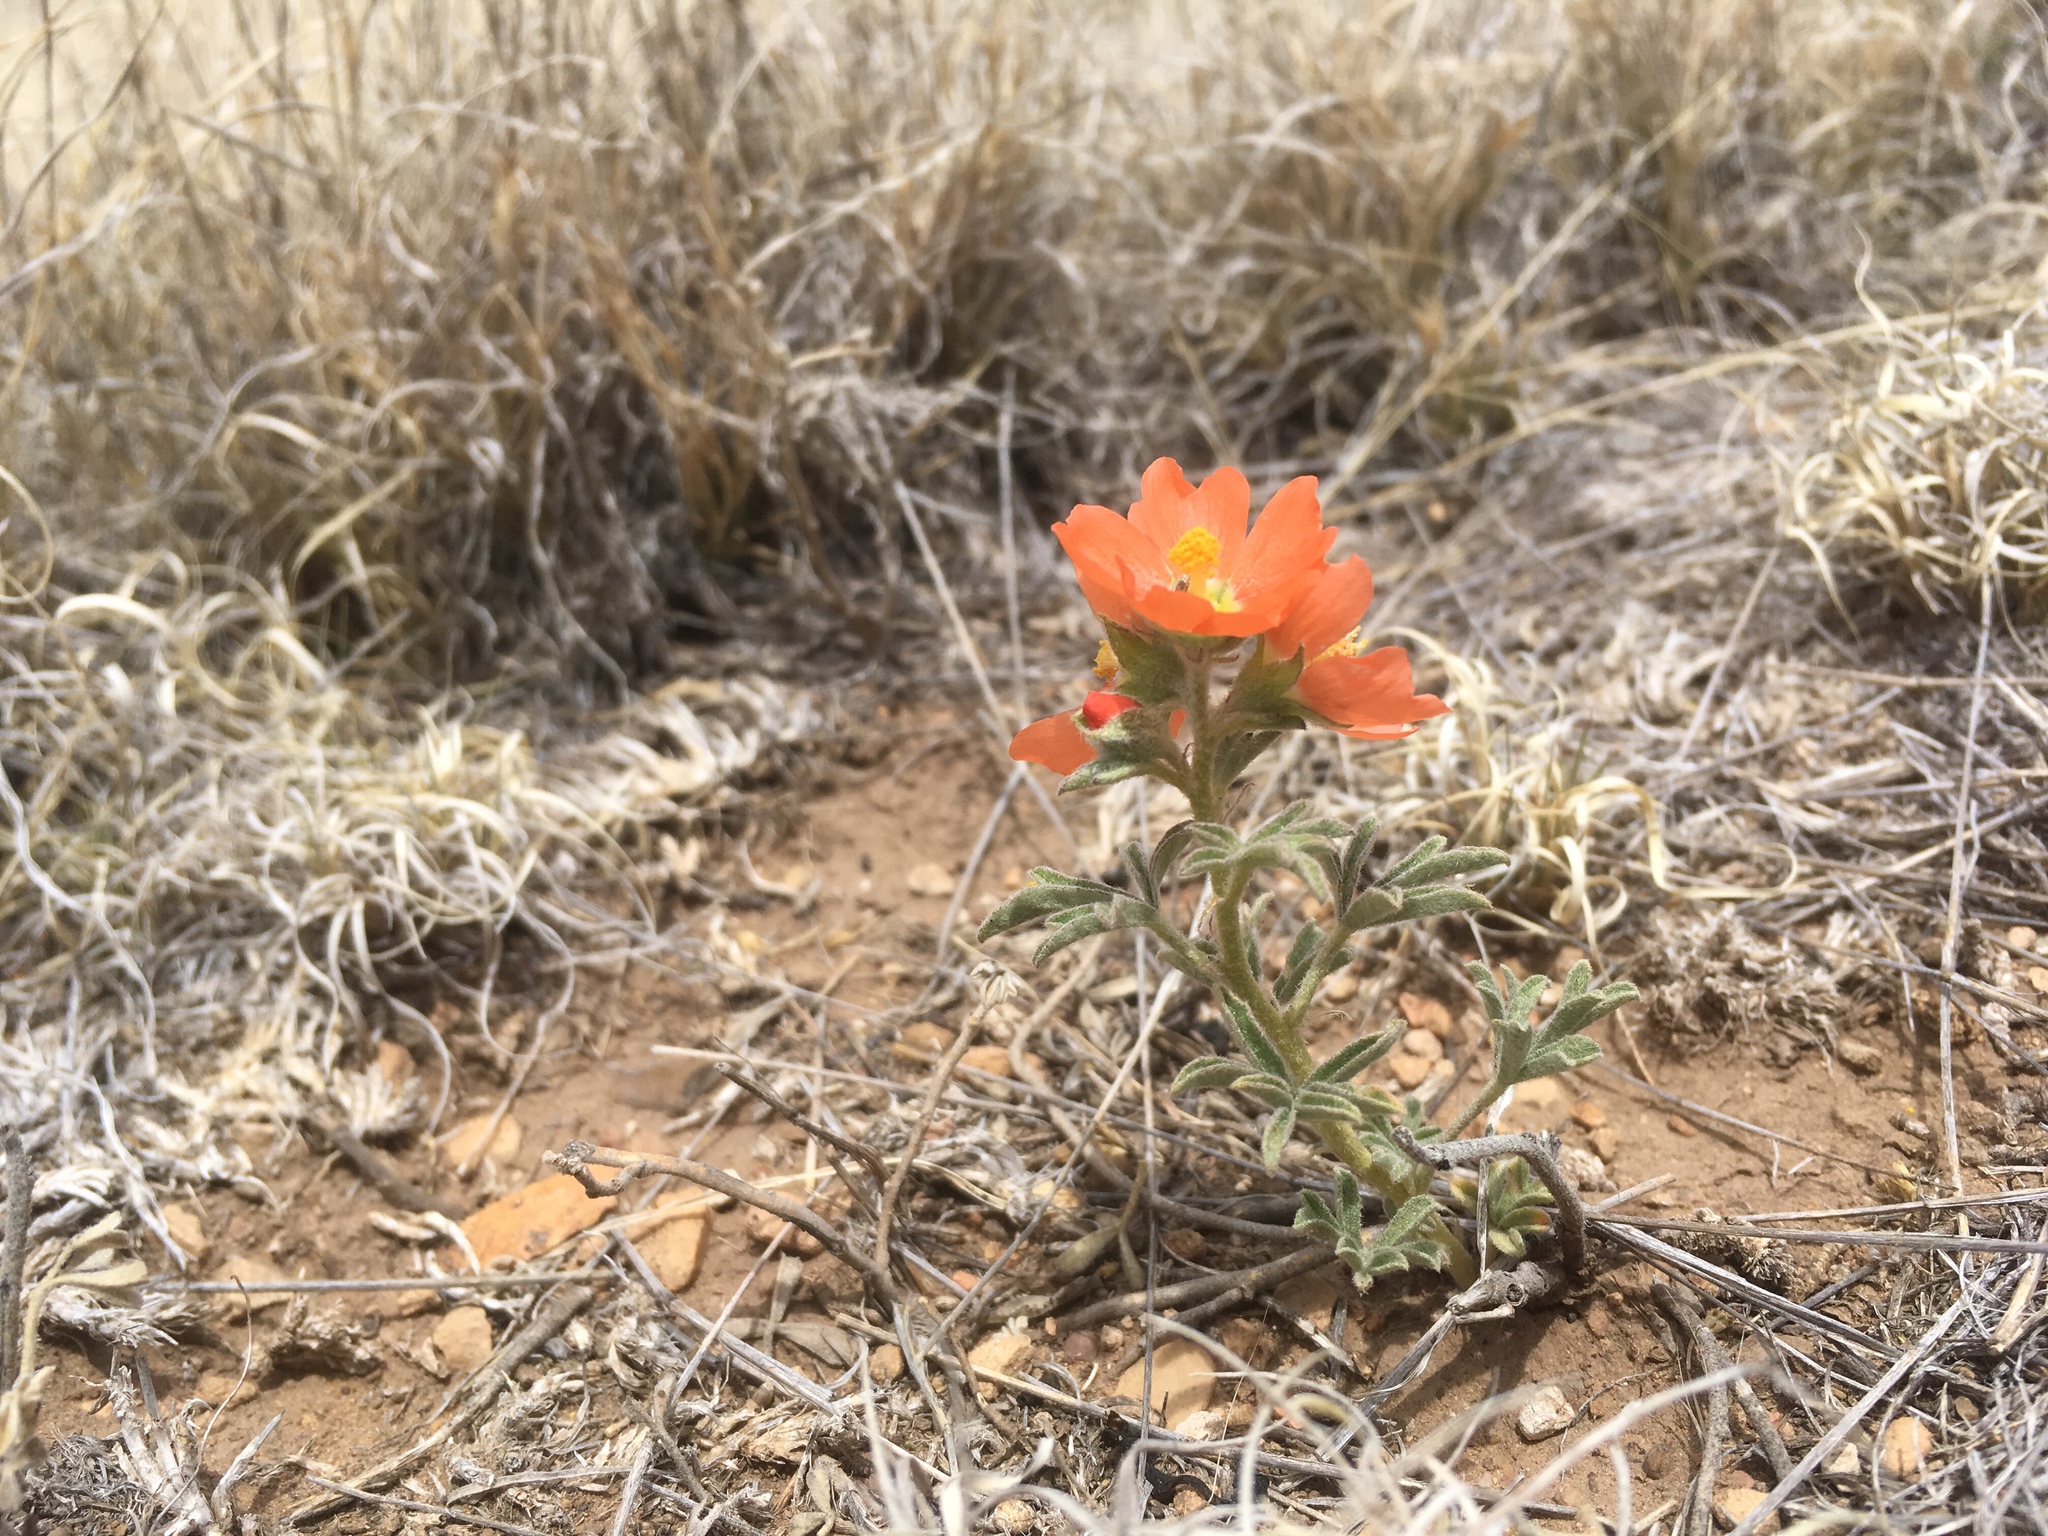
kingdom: Plantae
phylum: Tracheophyta
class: Magnoliopsida
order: Malvales
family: Malvaceae
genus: Sphaeralcea
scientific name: Sphaeralcea coccinea
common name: Moss-rose
